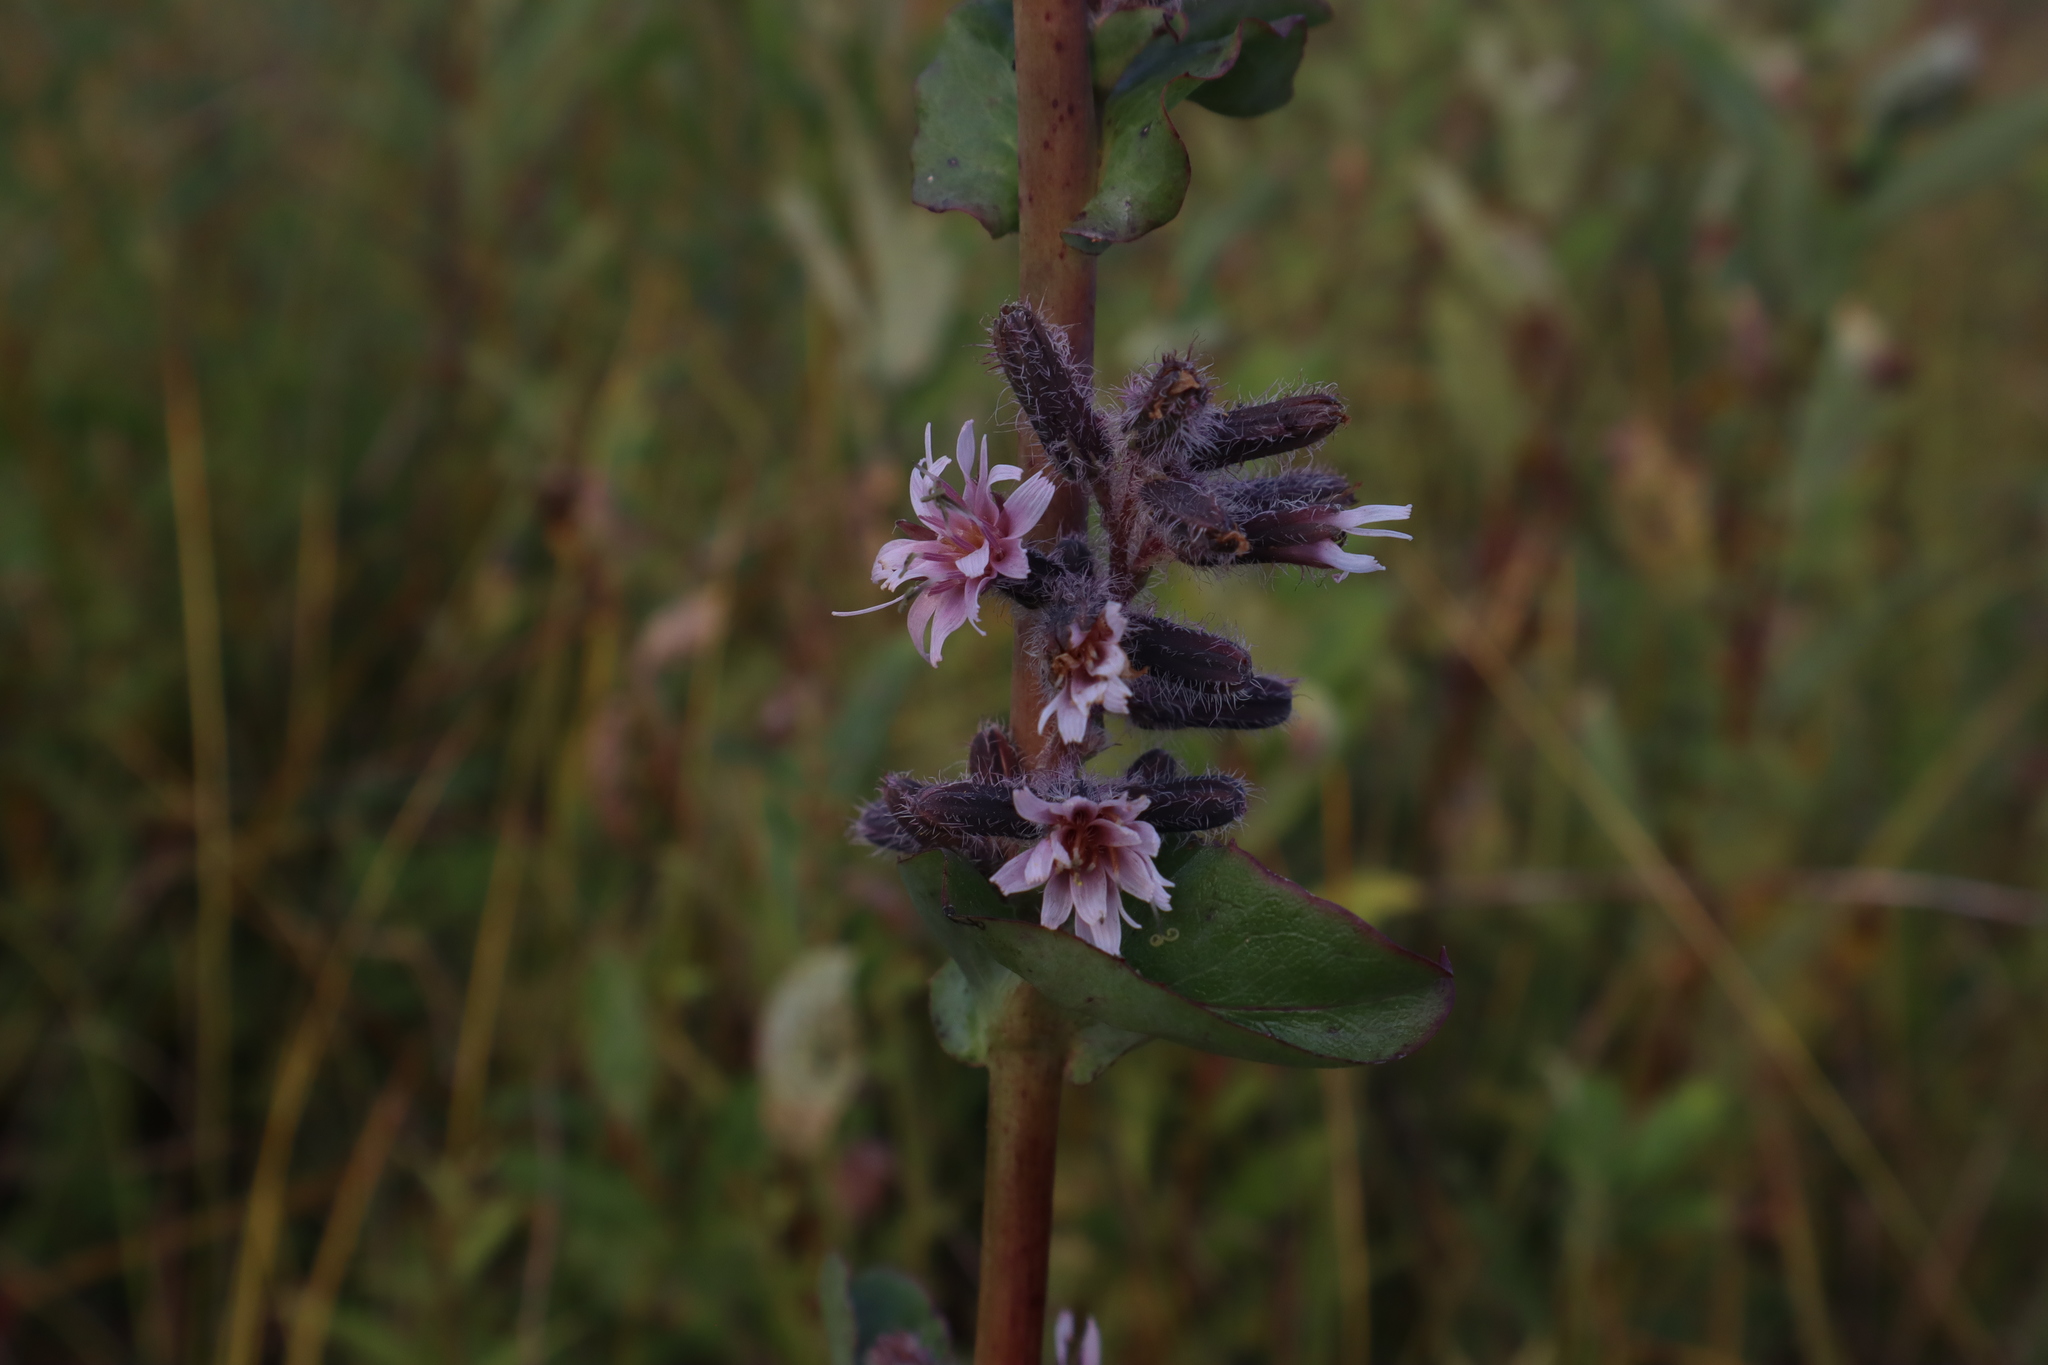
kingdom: Plantae
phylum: Tracheophyta
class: Magnoliopsida
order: Asterales
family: Asteraceae
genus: Nabalus
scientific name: Nabalus racemosus
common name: Glaucous white lettuce
